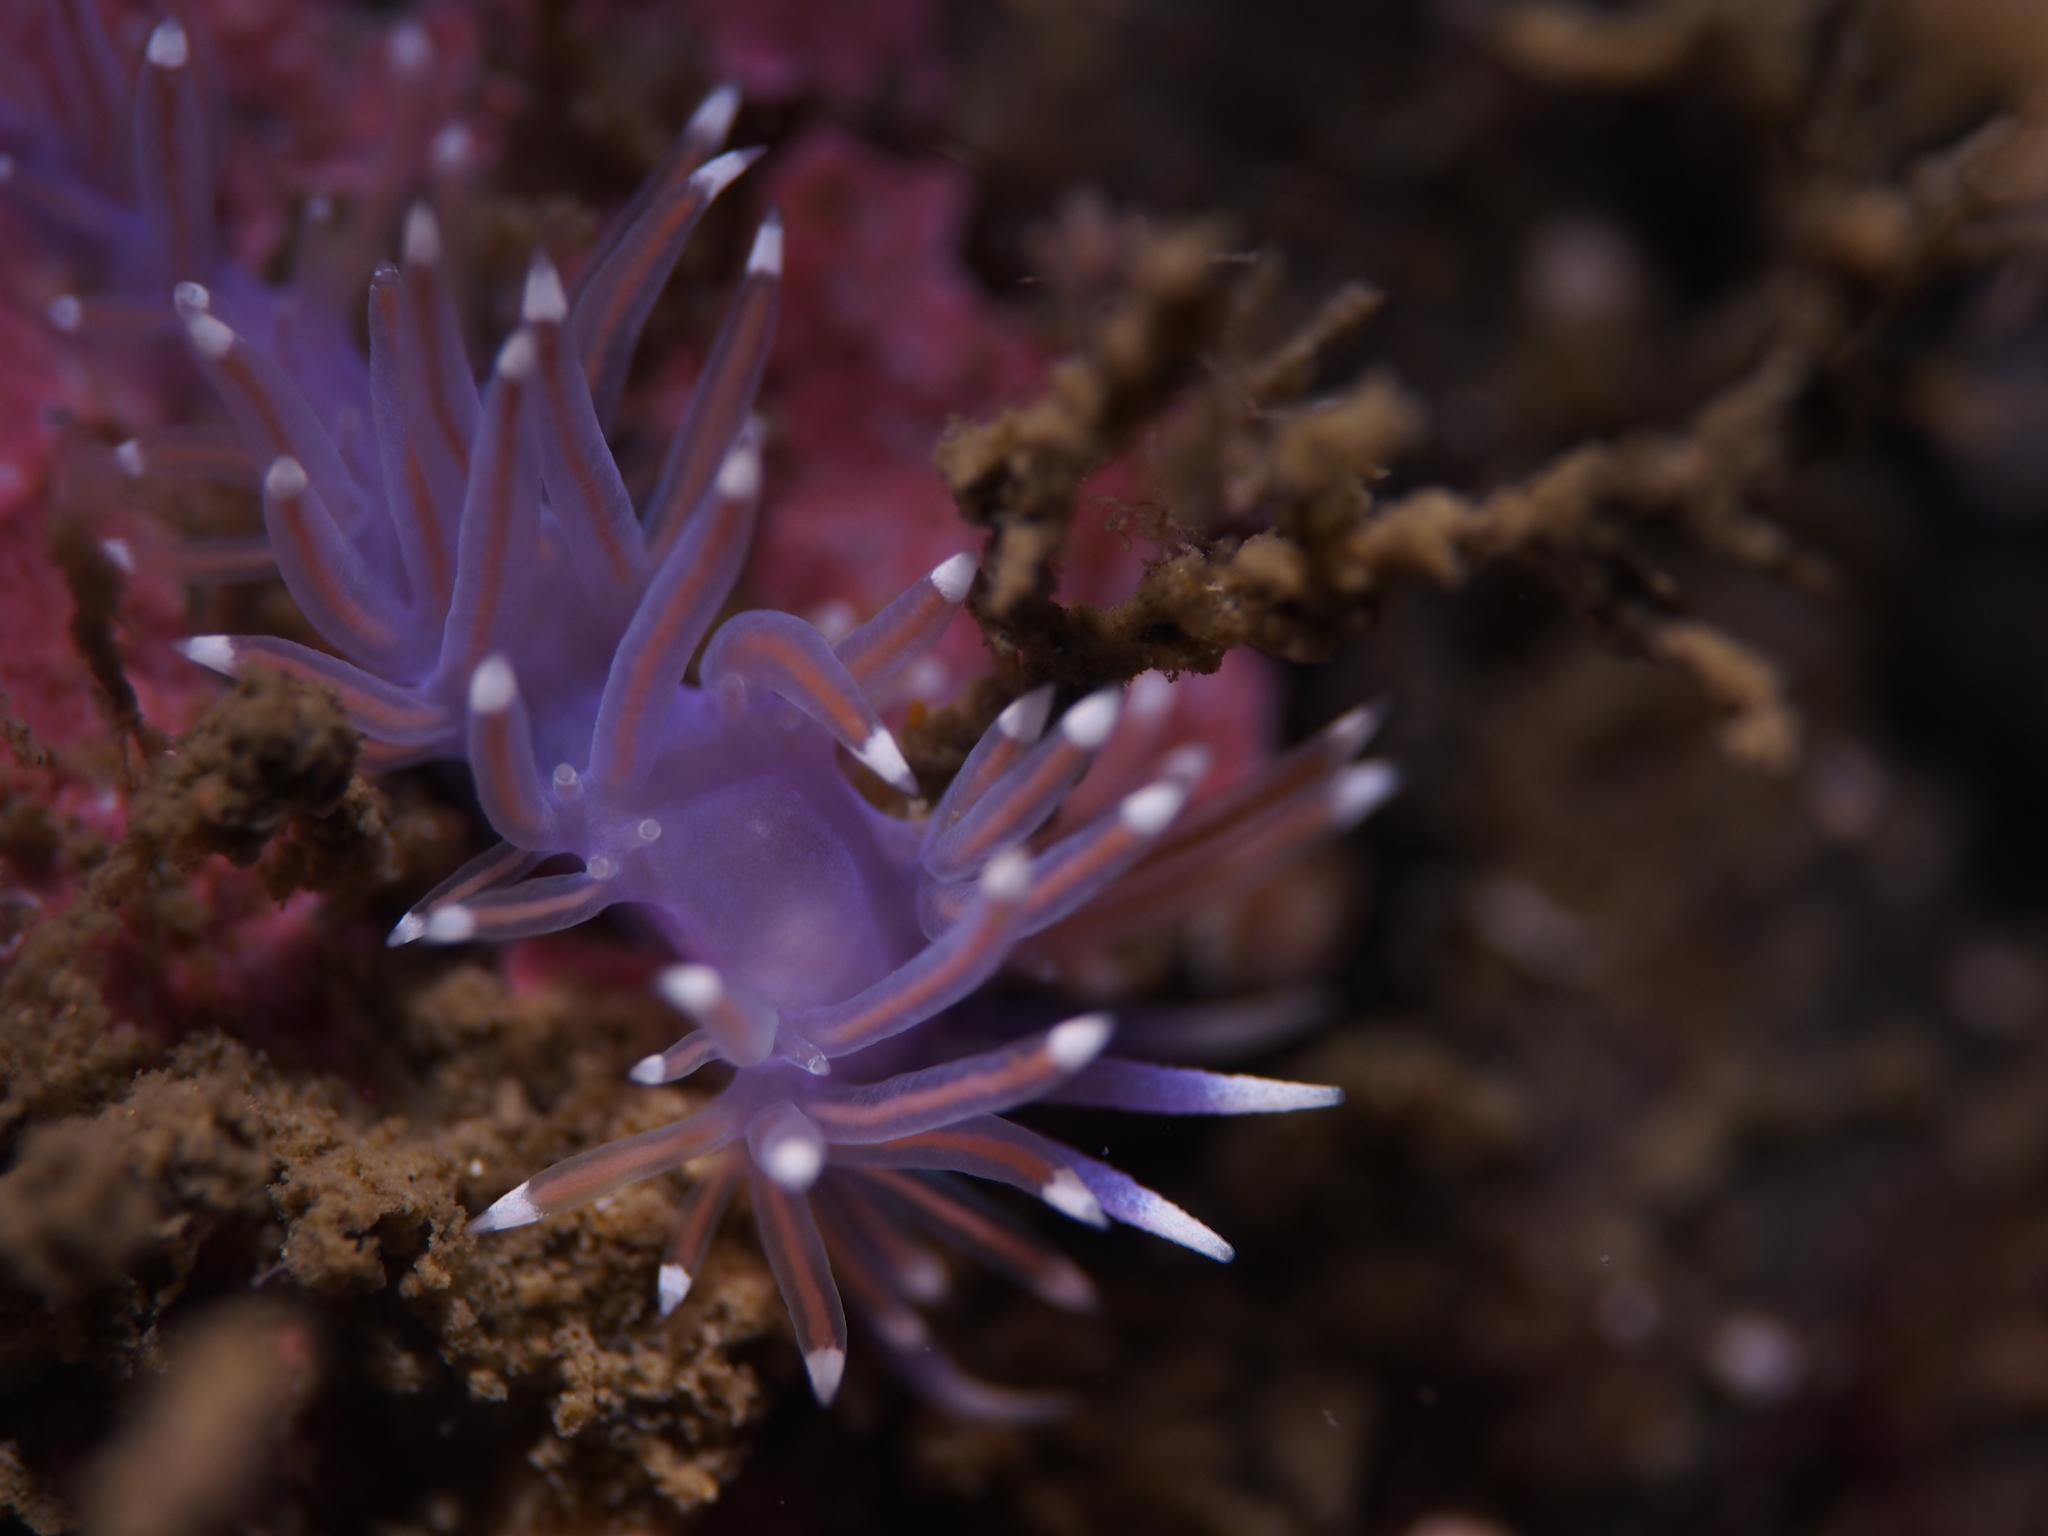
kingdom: Animalia
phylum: Mollusca
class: Gastropoda
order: Nudibranchia
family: Flabellinidae
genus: Edmundsella
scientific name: Edmundsella pedata
